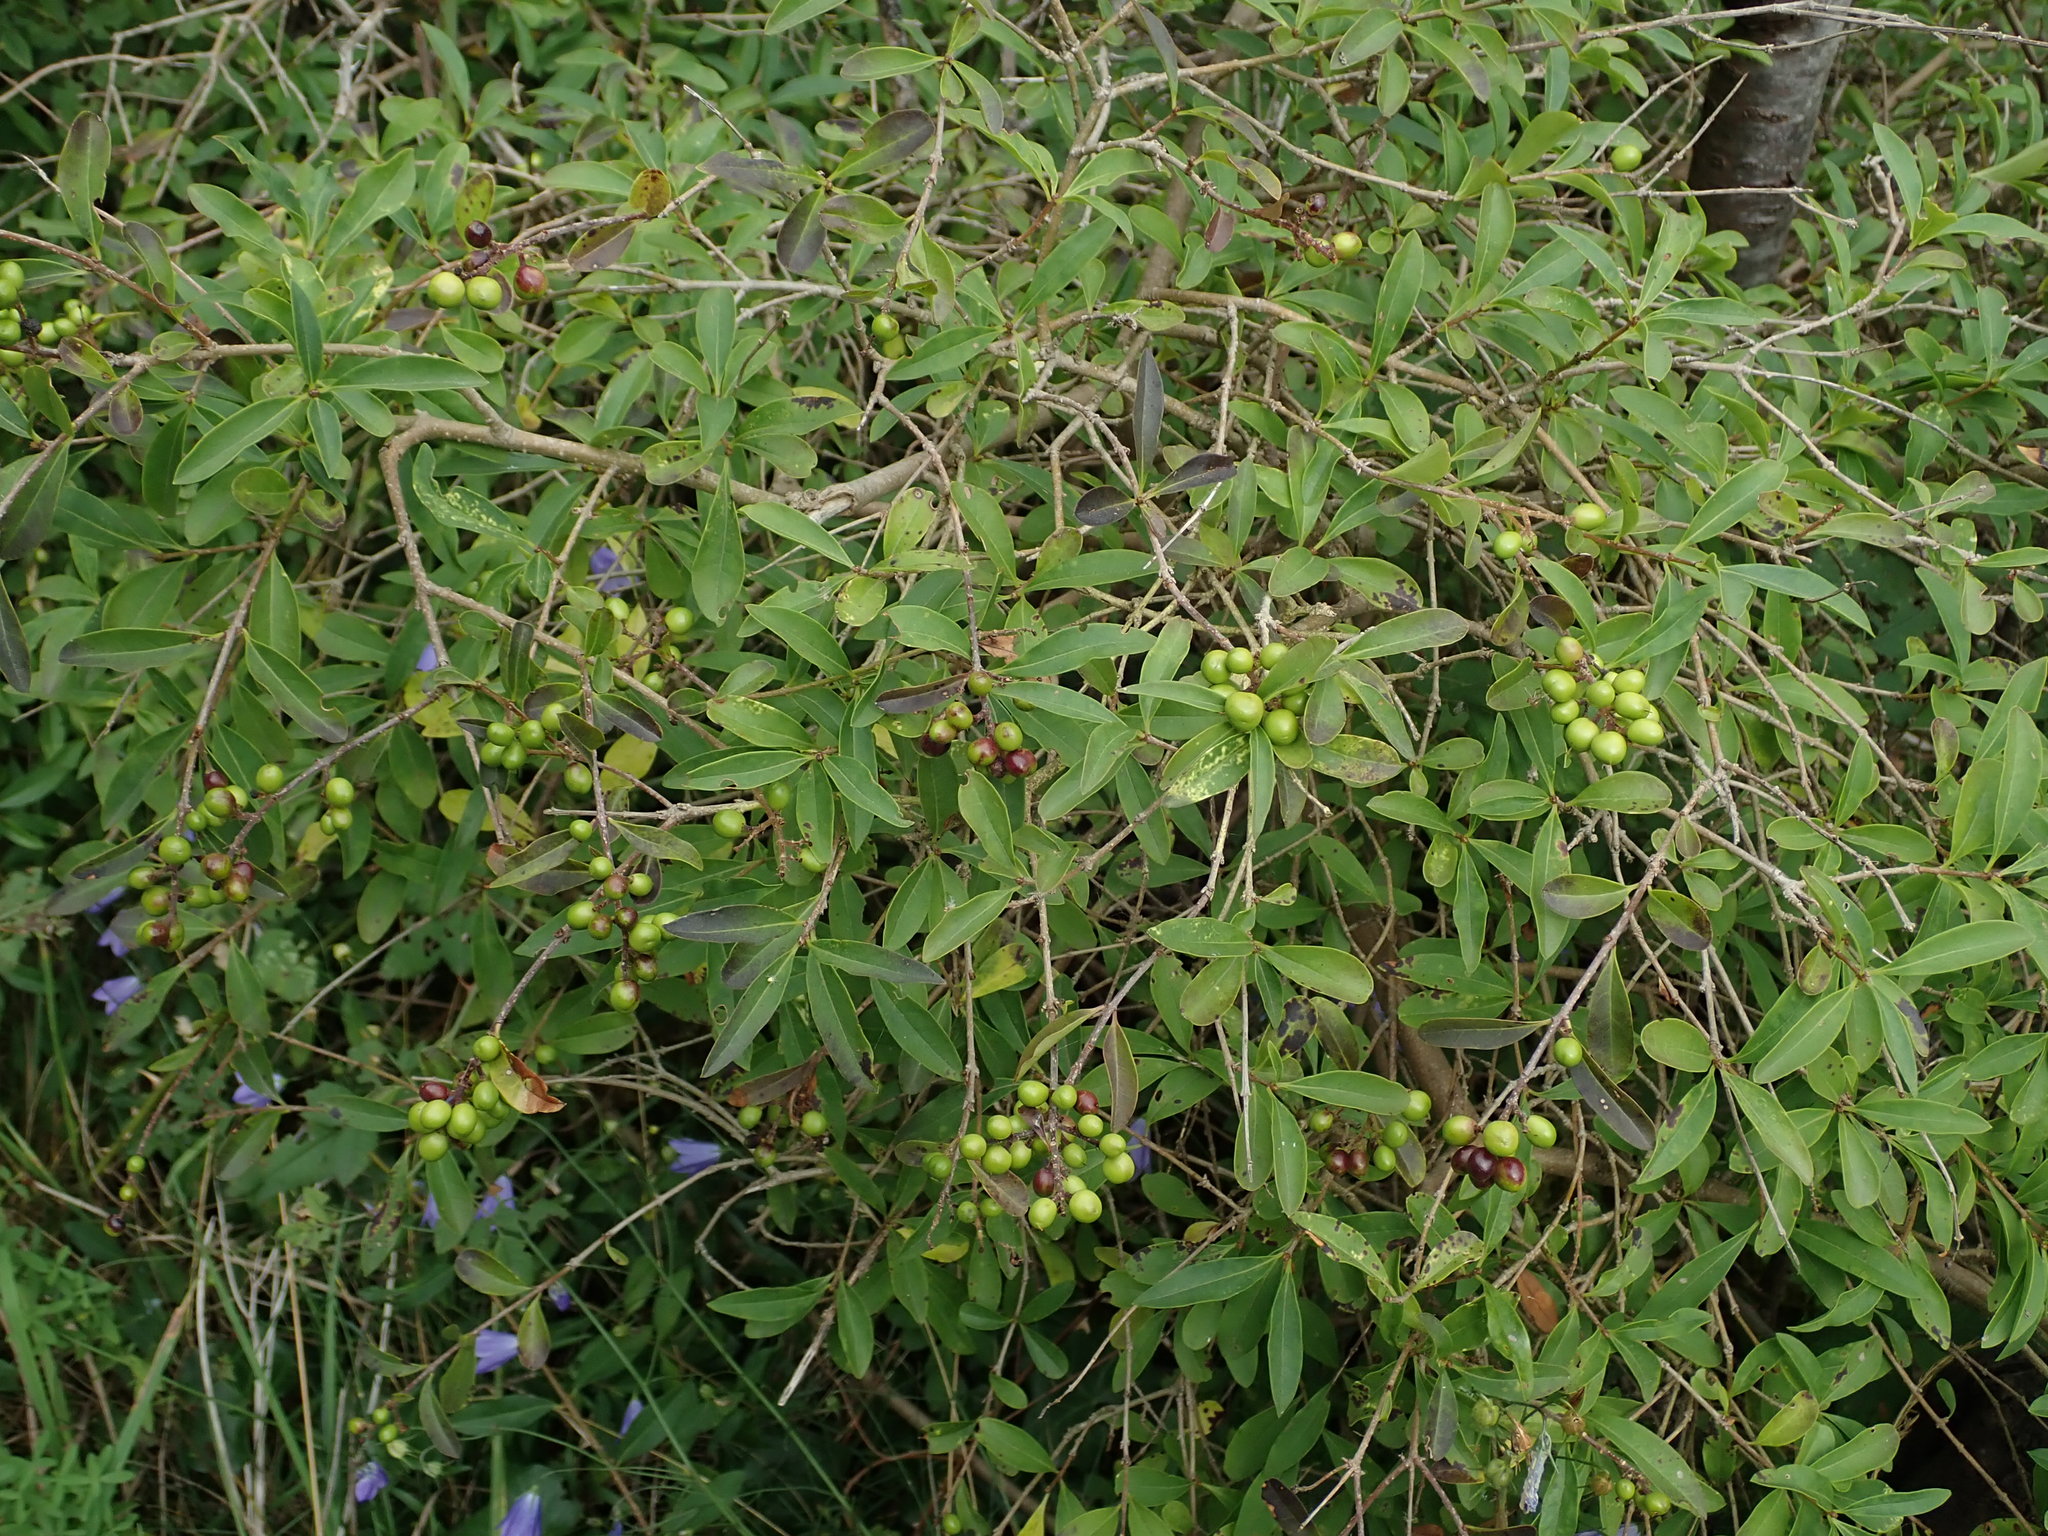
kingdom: Plantae
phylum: Tracheophyta
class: Magnoliopsida
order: Lamiales
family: Oleaceae
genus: Ligustrum
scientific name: Ligustrum vulgare
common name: Wild privet
